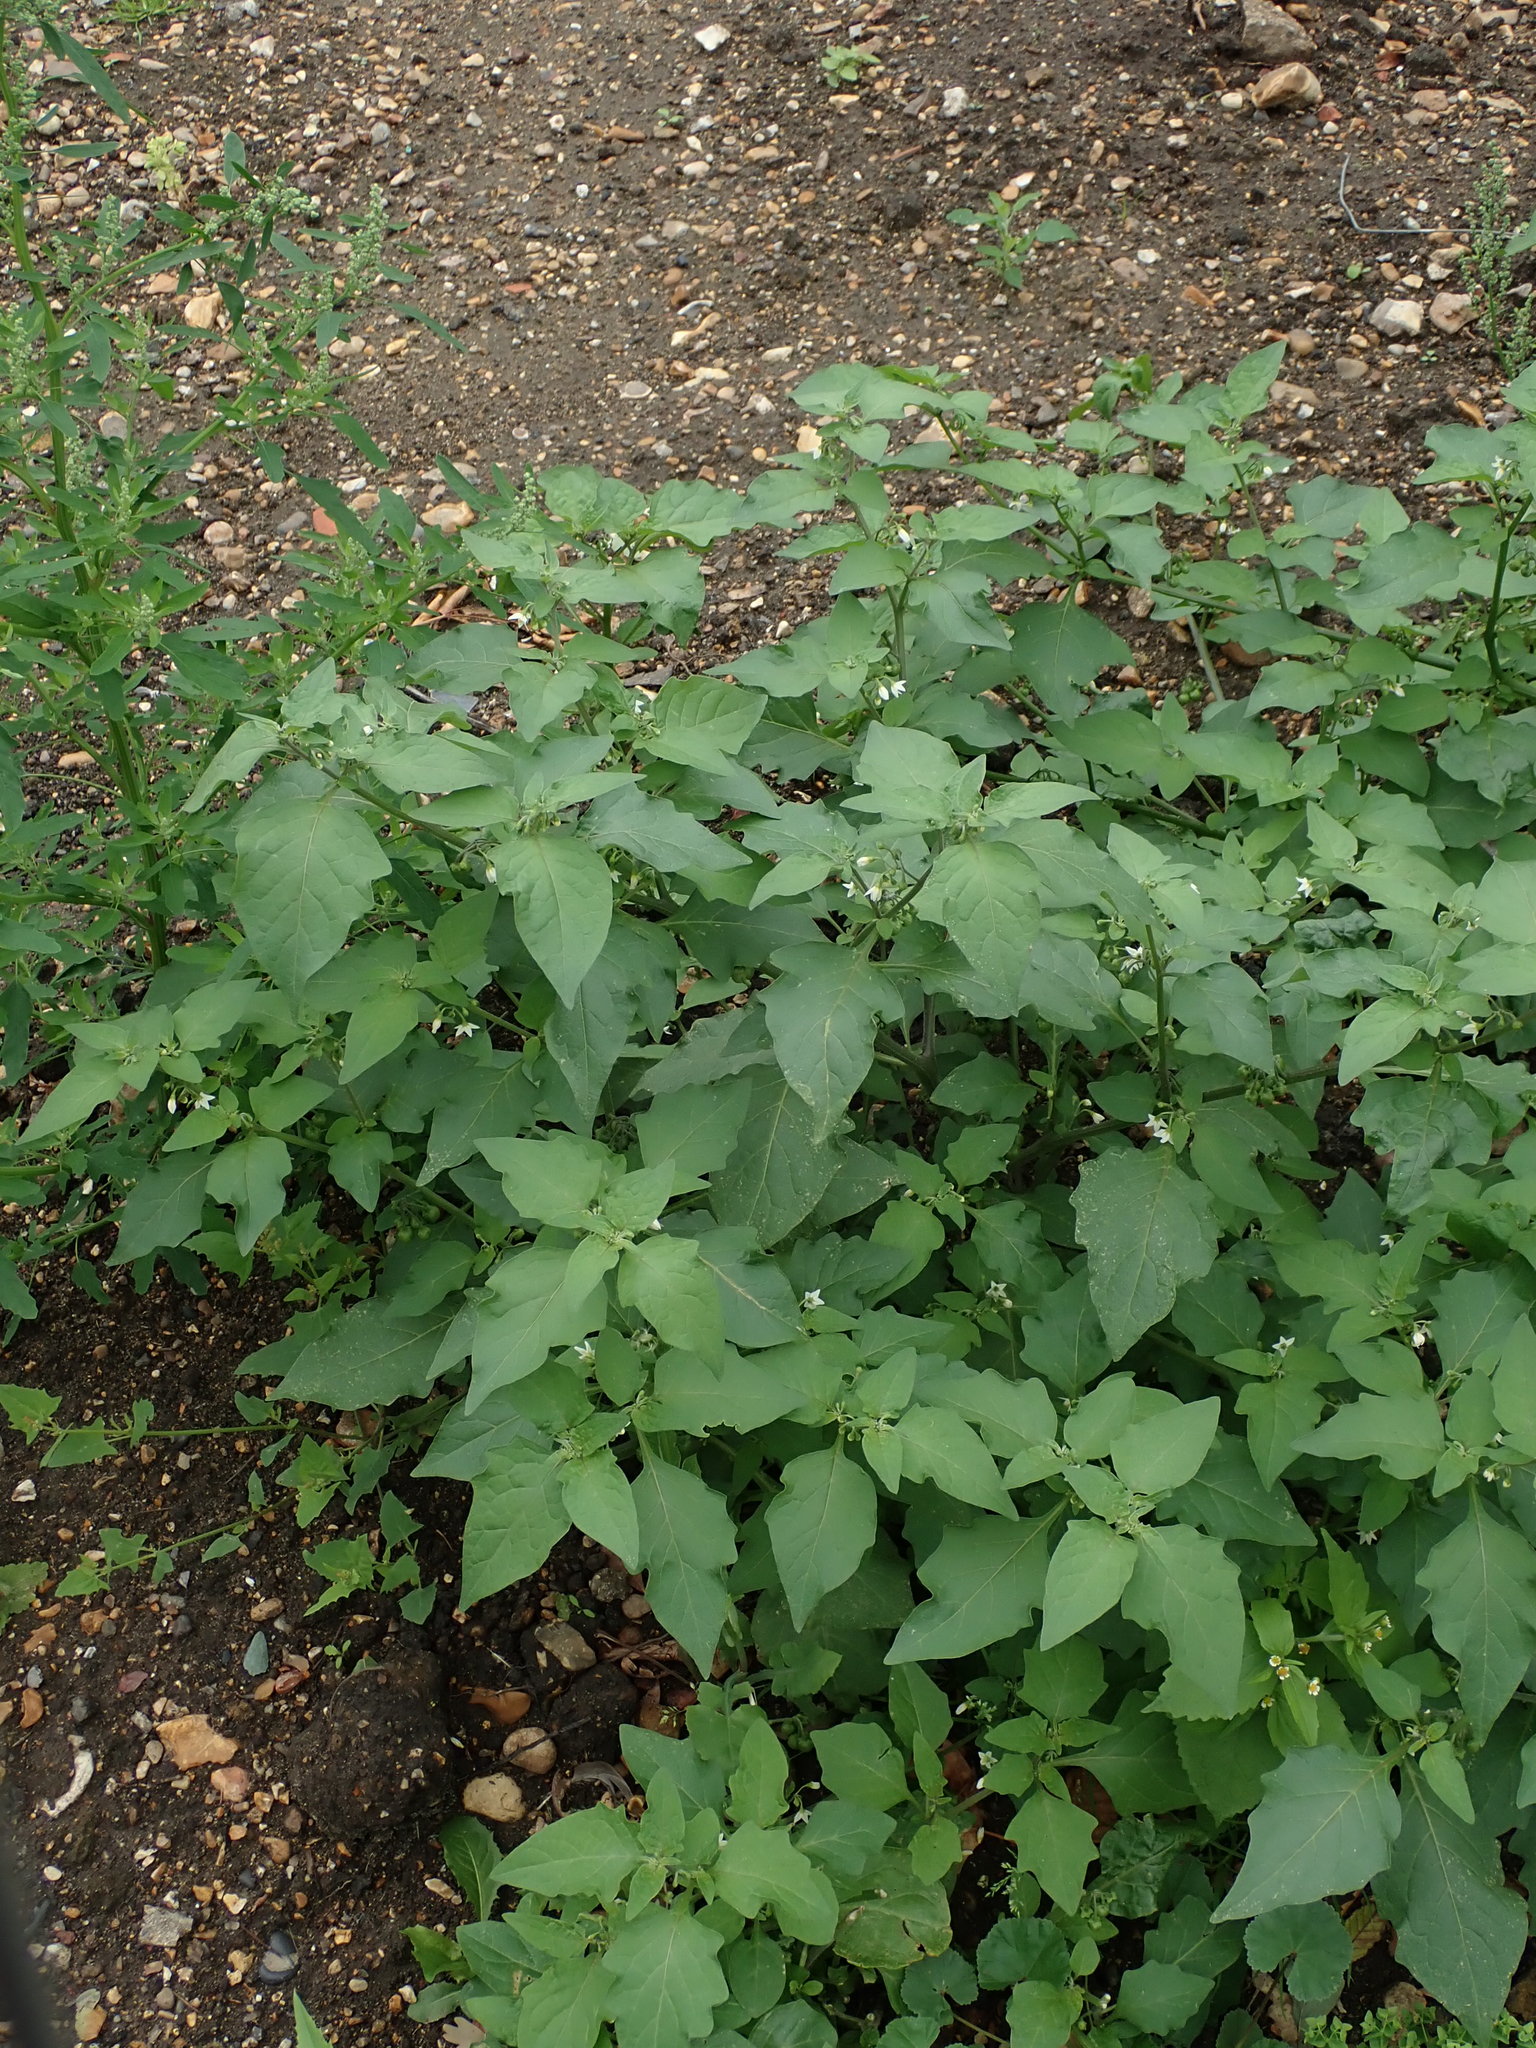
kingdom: Plantae
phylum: Tracheophyta
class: Magnoliopsida
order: Solanales
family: Solanaceae
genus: Solanum
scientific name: Solanum nigrum
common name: Black nightshade
